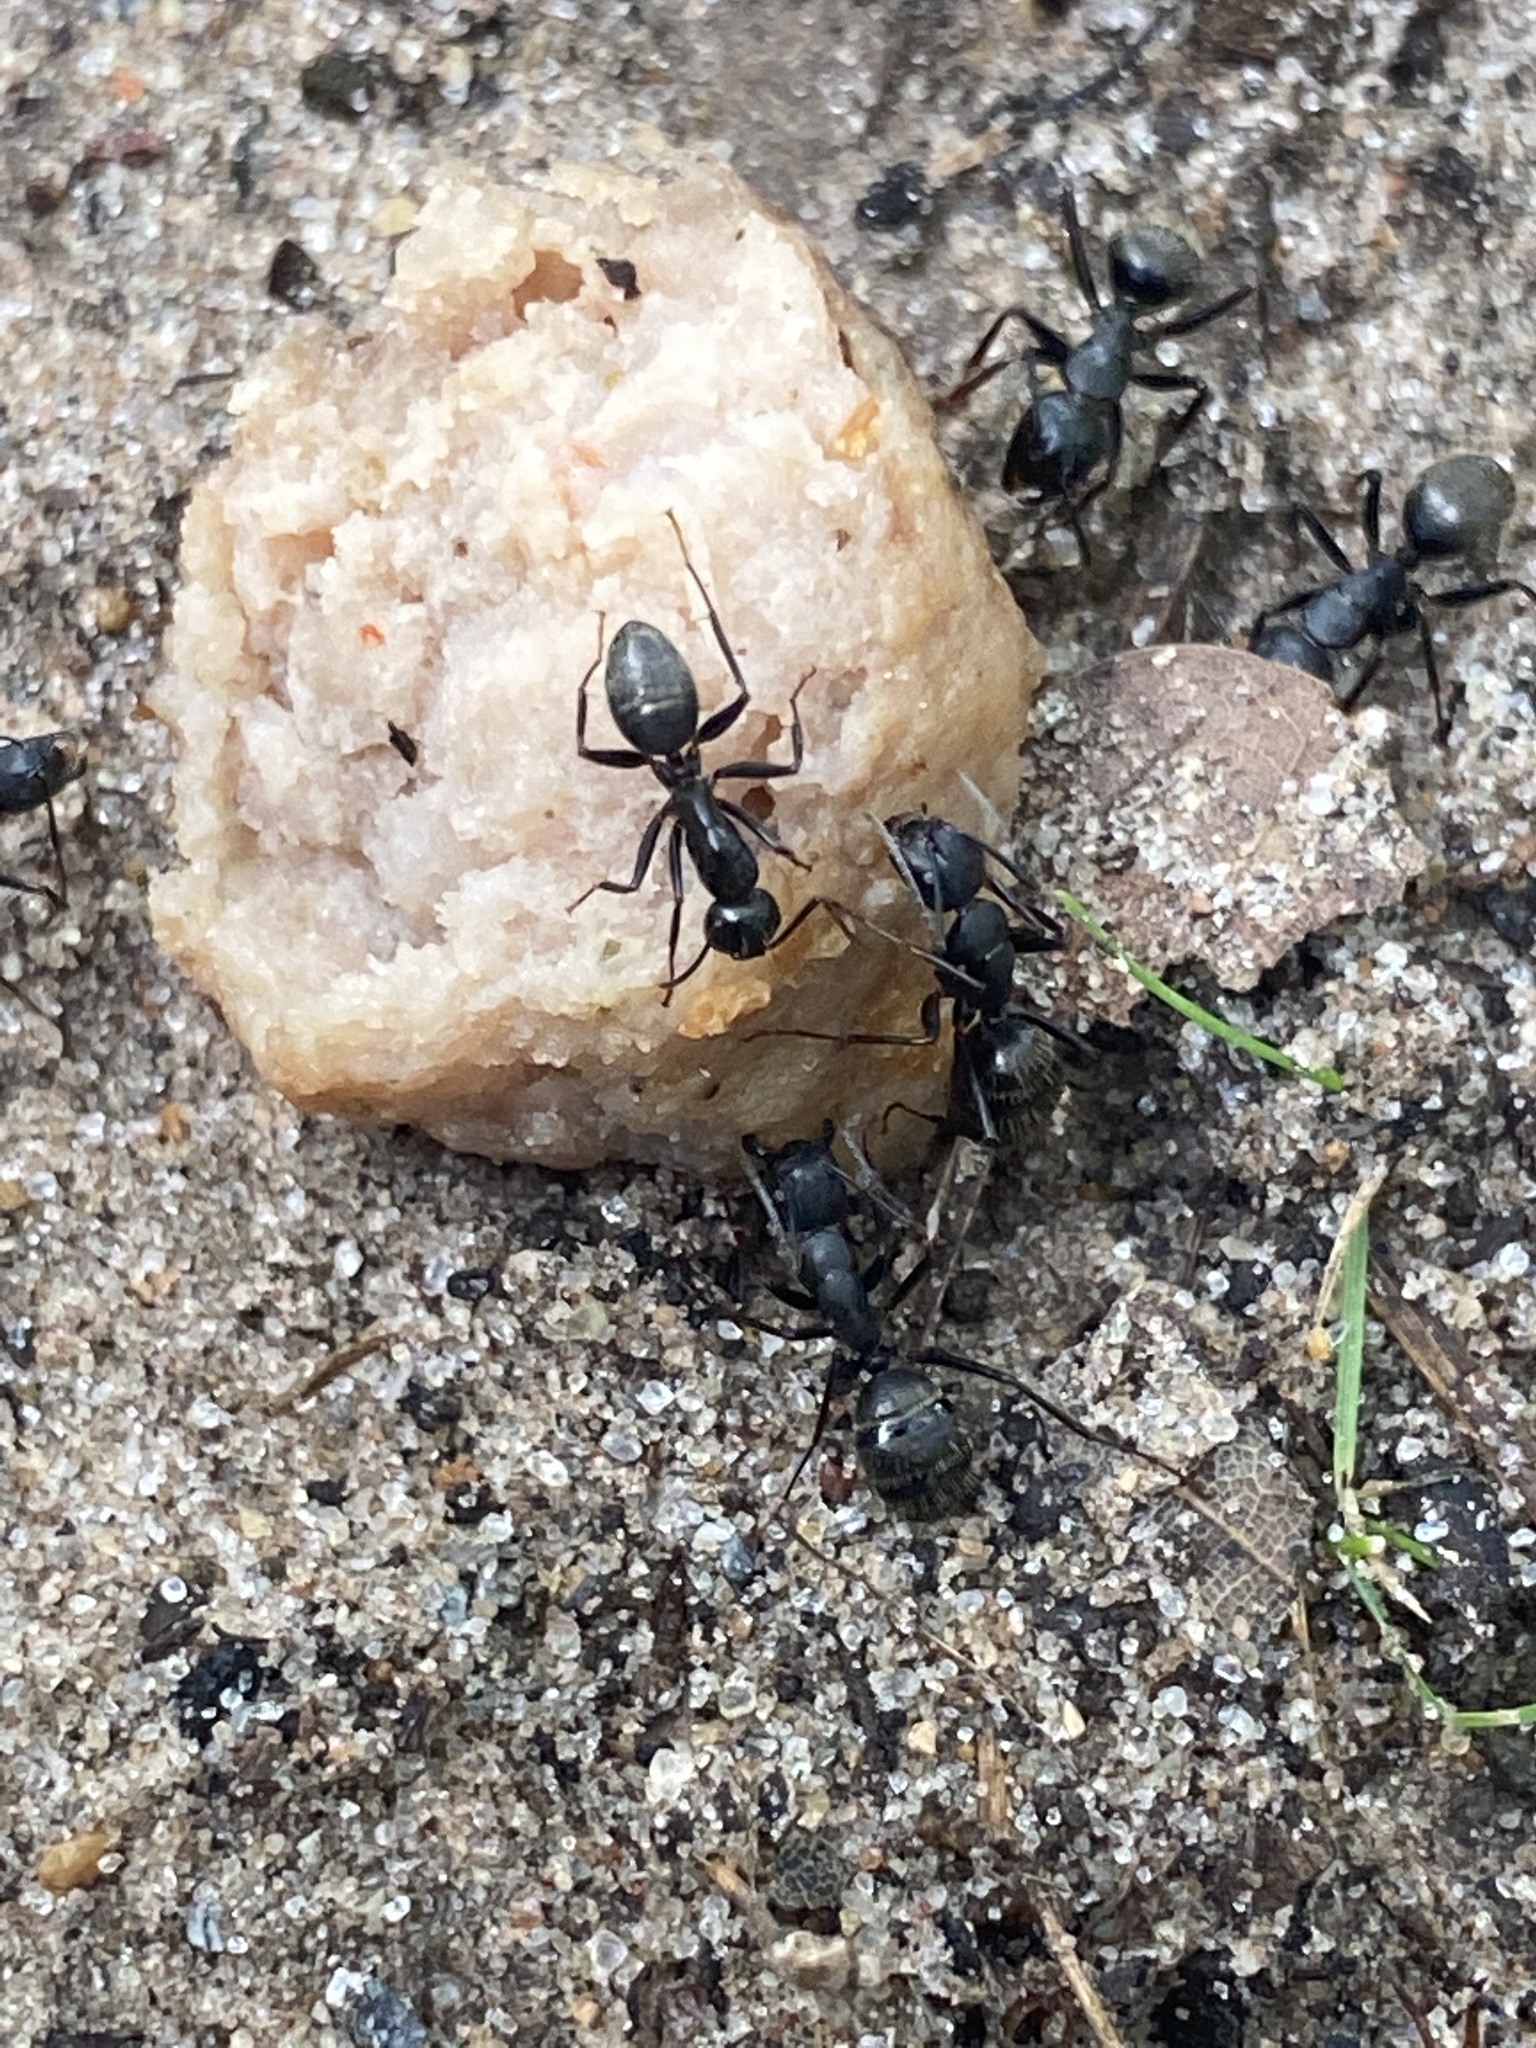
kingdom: Animalia
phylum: Arthropoda
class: Insecta
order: Hymenoptera
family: Formicidae
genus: Camponotus
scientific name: Camponotus pennsylvanicus
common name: Black carpenter ant
